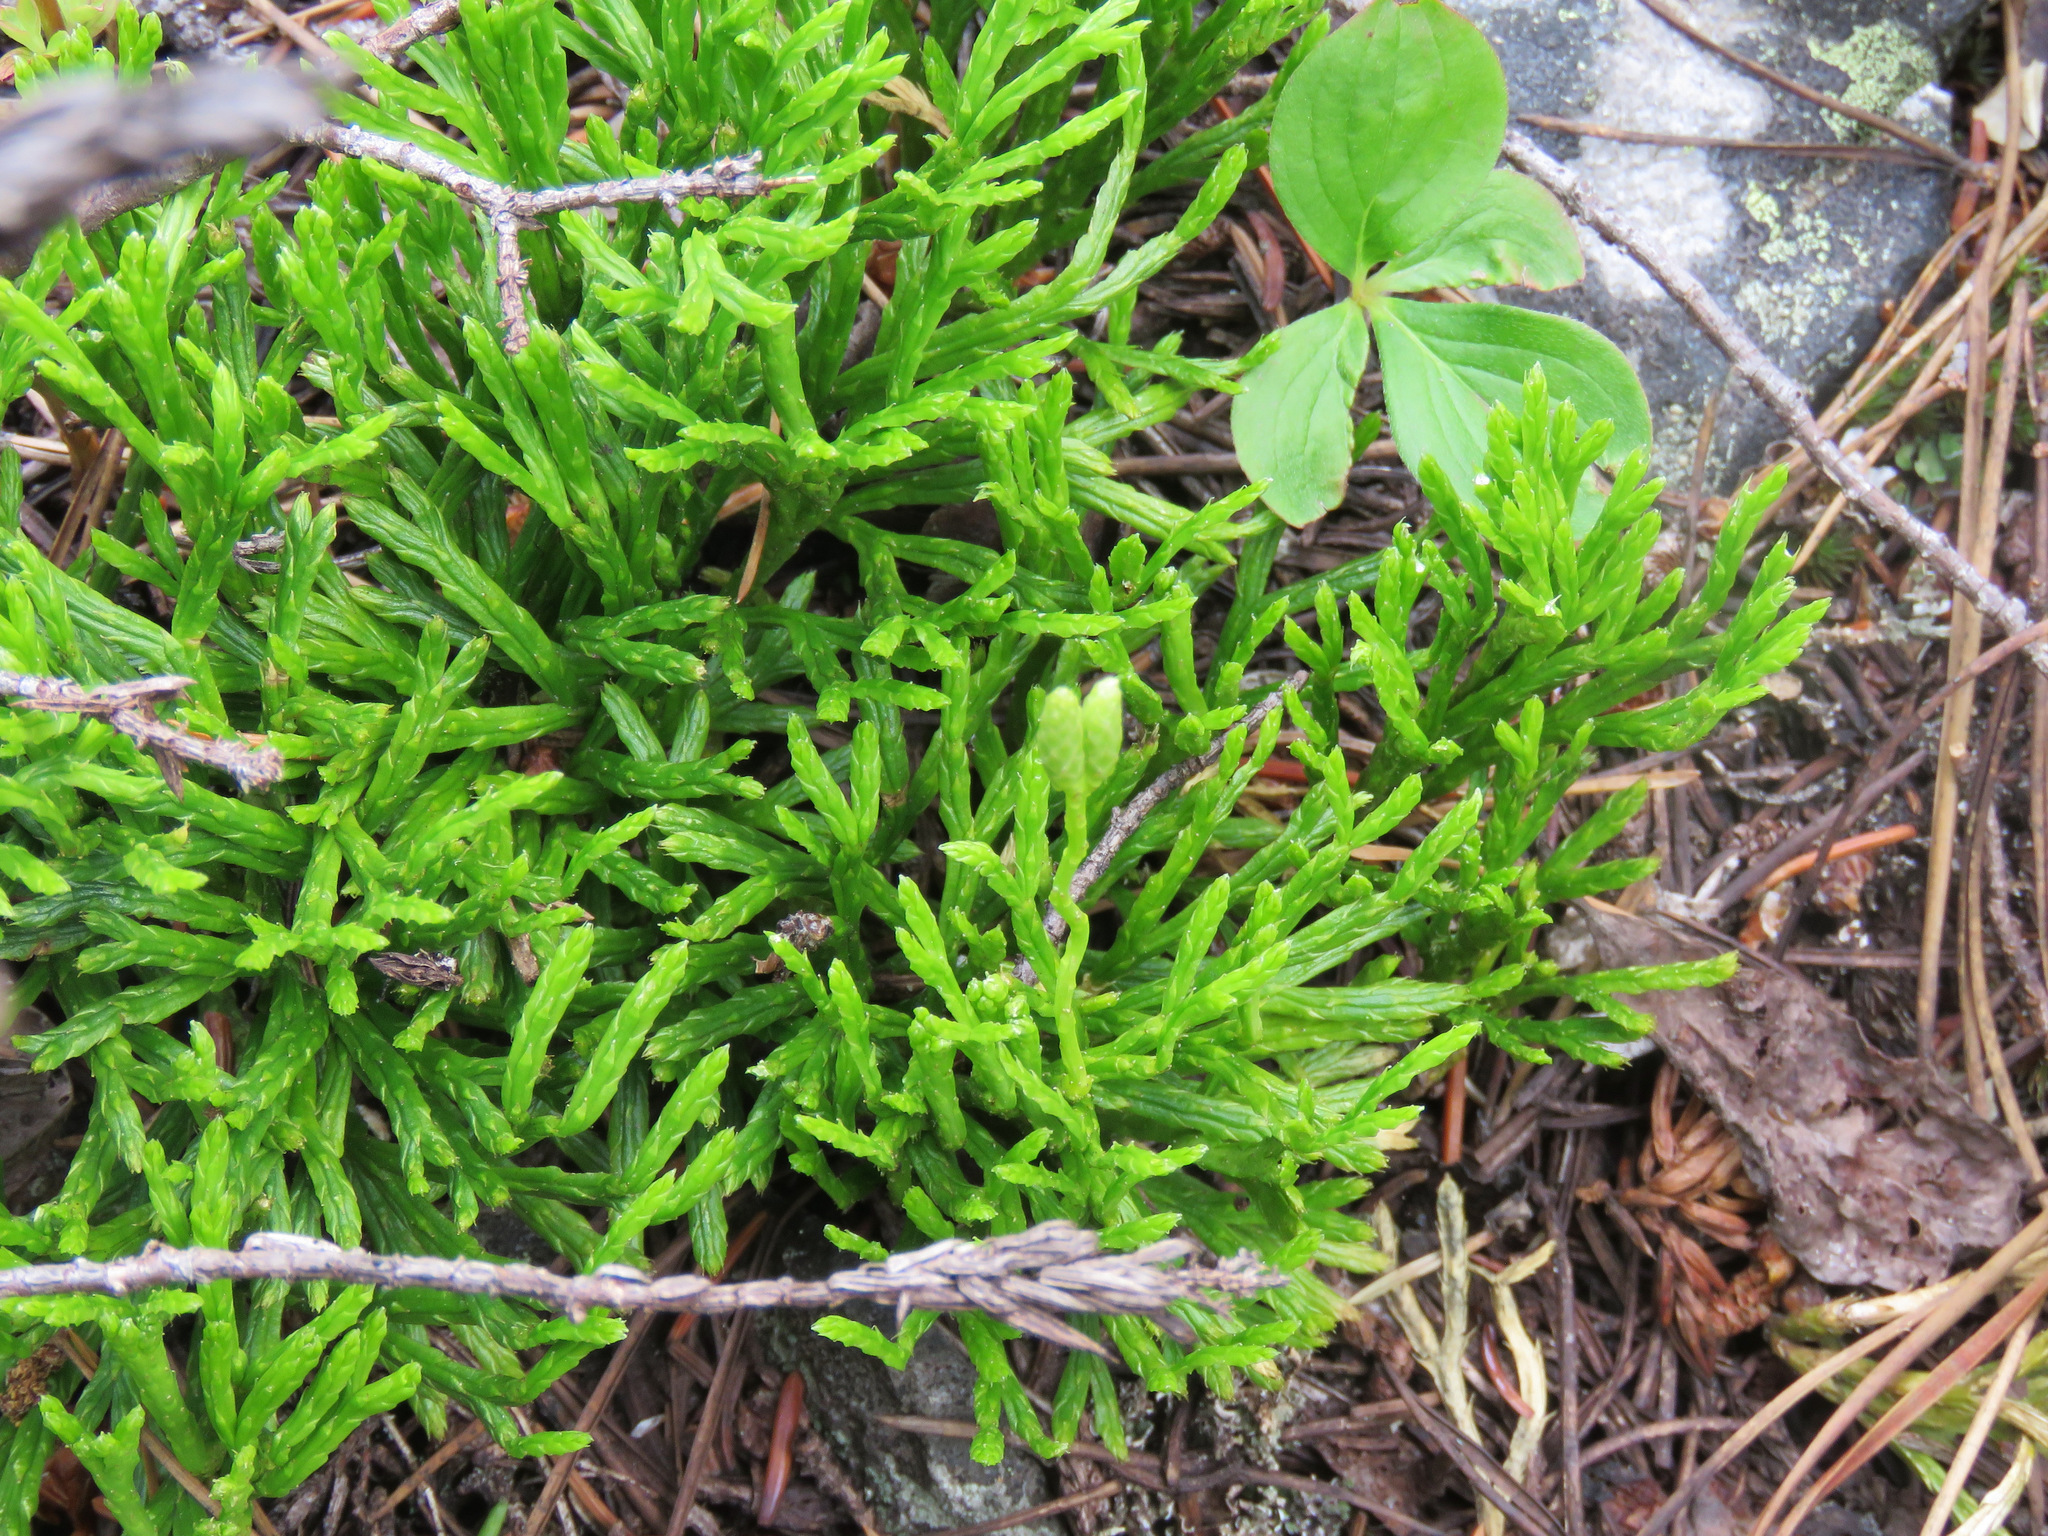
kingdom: Plantae
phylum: Tracheophyta
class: Lycopodiopsida
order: Lycopodiales
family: Lycopodiaceae
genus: Diphasiastrum
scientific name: Diphasiastrum complanatum
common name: Northern running-pine
